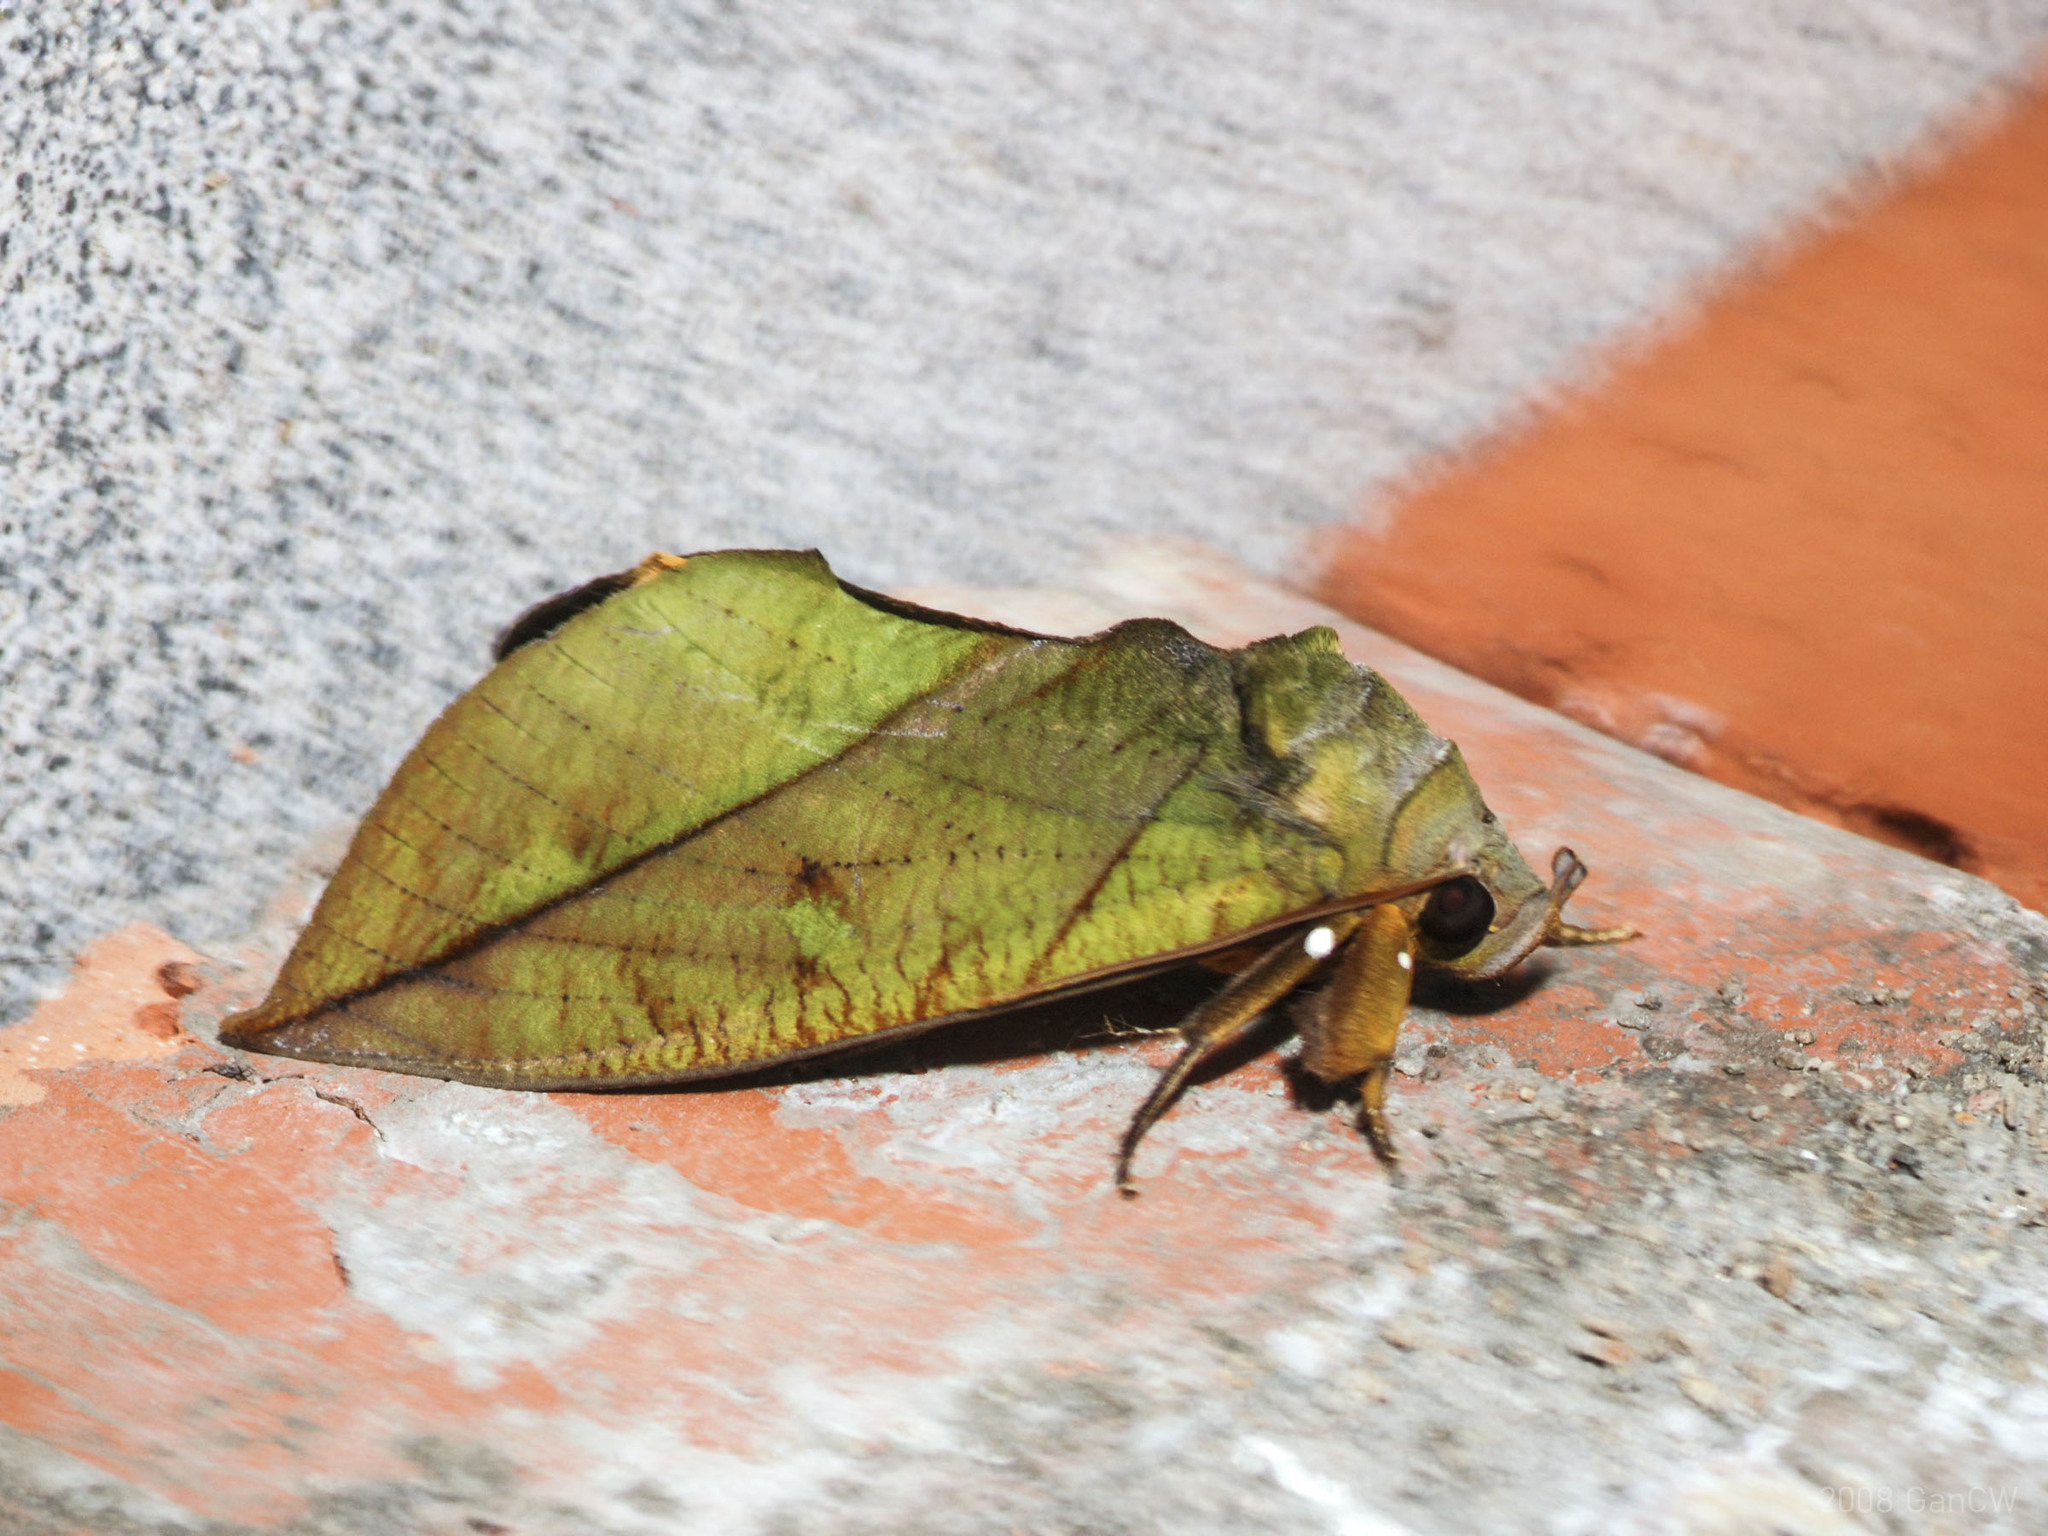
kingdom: Animalia
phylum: Arthropoda
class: Insecta
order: Lepidoptera
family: Erebidae
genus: Eudocima
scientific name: Eudocima sikhimensis
